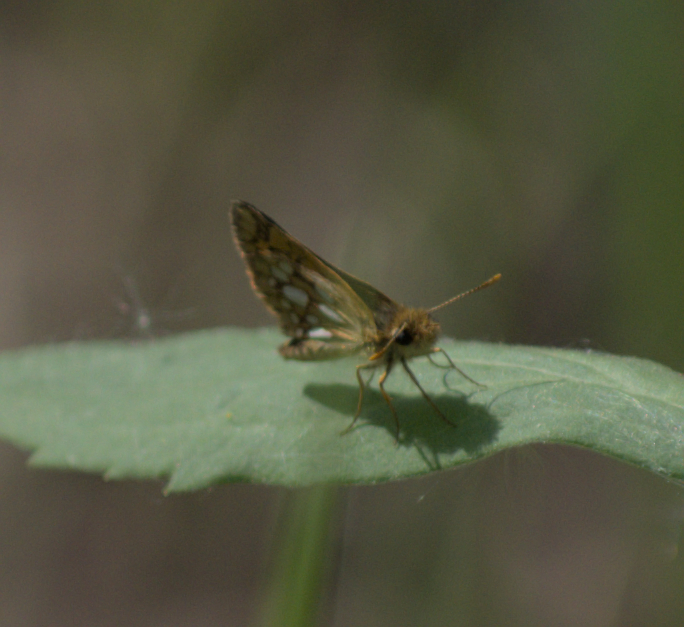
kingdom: Animalia
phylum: Arthropoda
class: Insecta
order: Lepidoptera
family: Hesperiidae
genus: Carterocephalus
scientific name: Carterocephalus mandan
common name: Arctic skipperling
